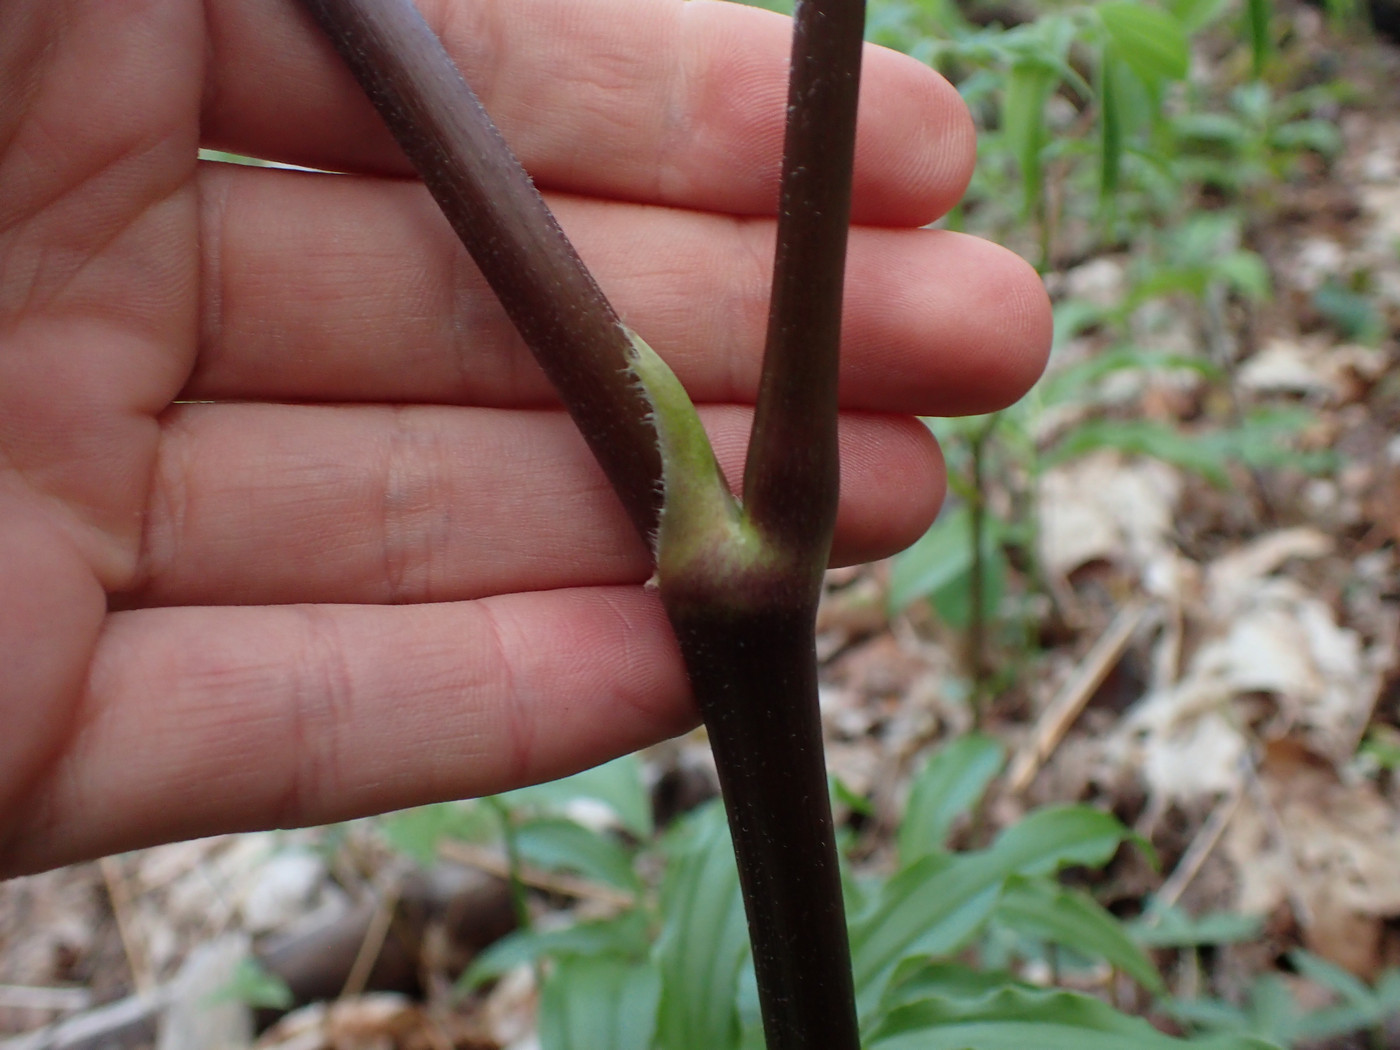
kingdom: Plantae
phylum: Tracheophyta
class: Magnoliopsida
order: Apiales
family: Araliaceae
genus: Aralia
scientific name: Aralia racemosa
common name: American-spikenard
